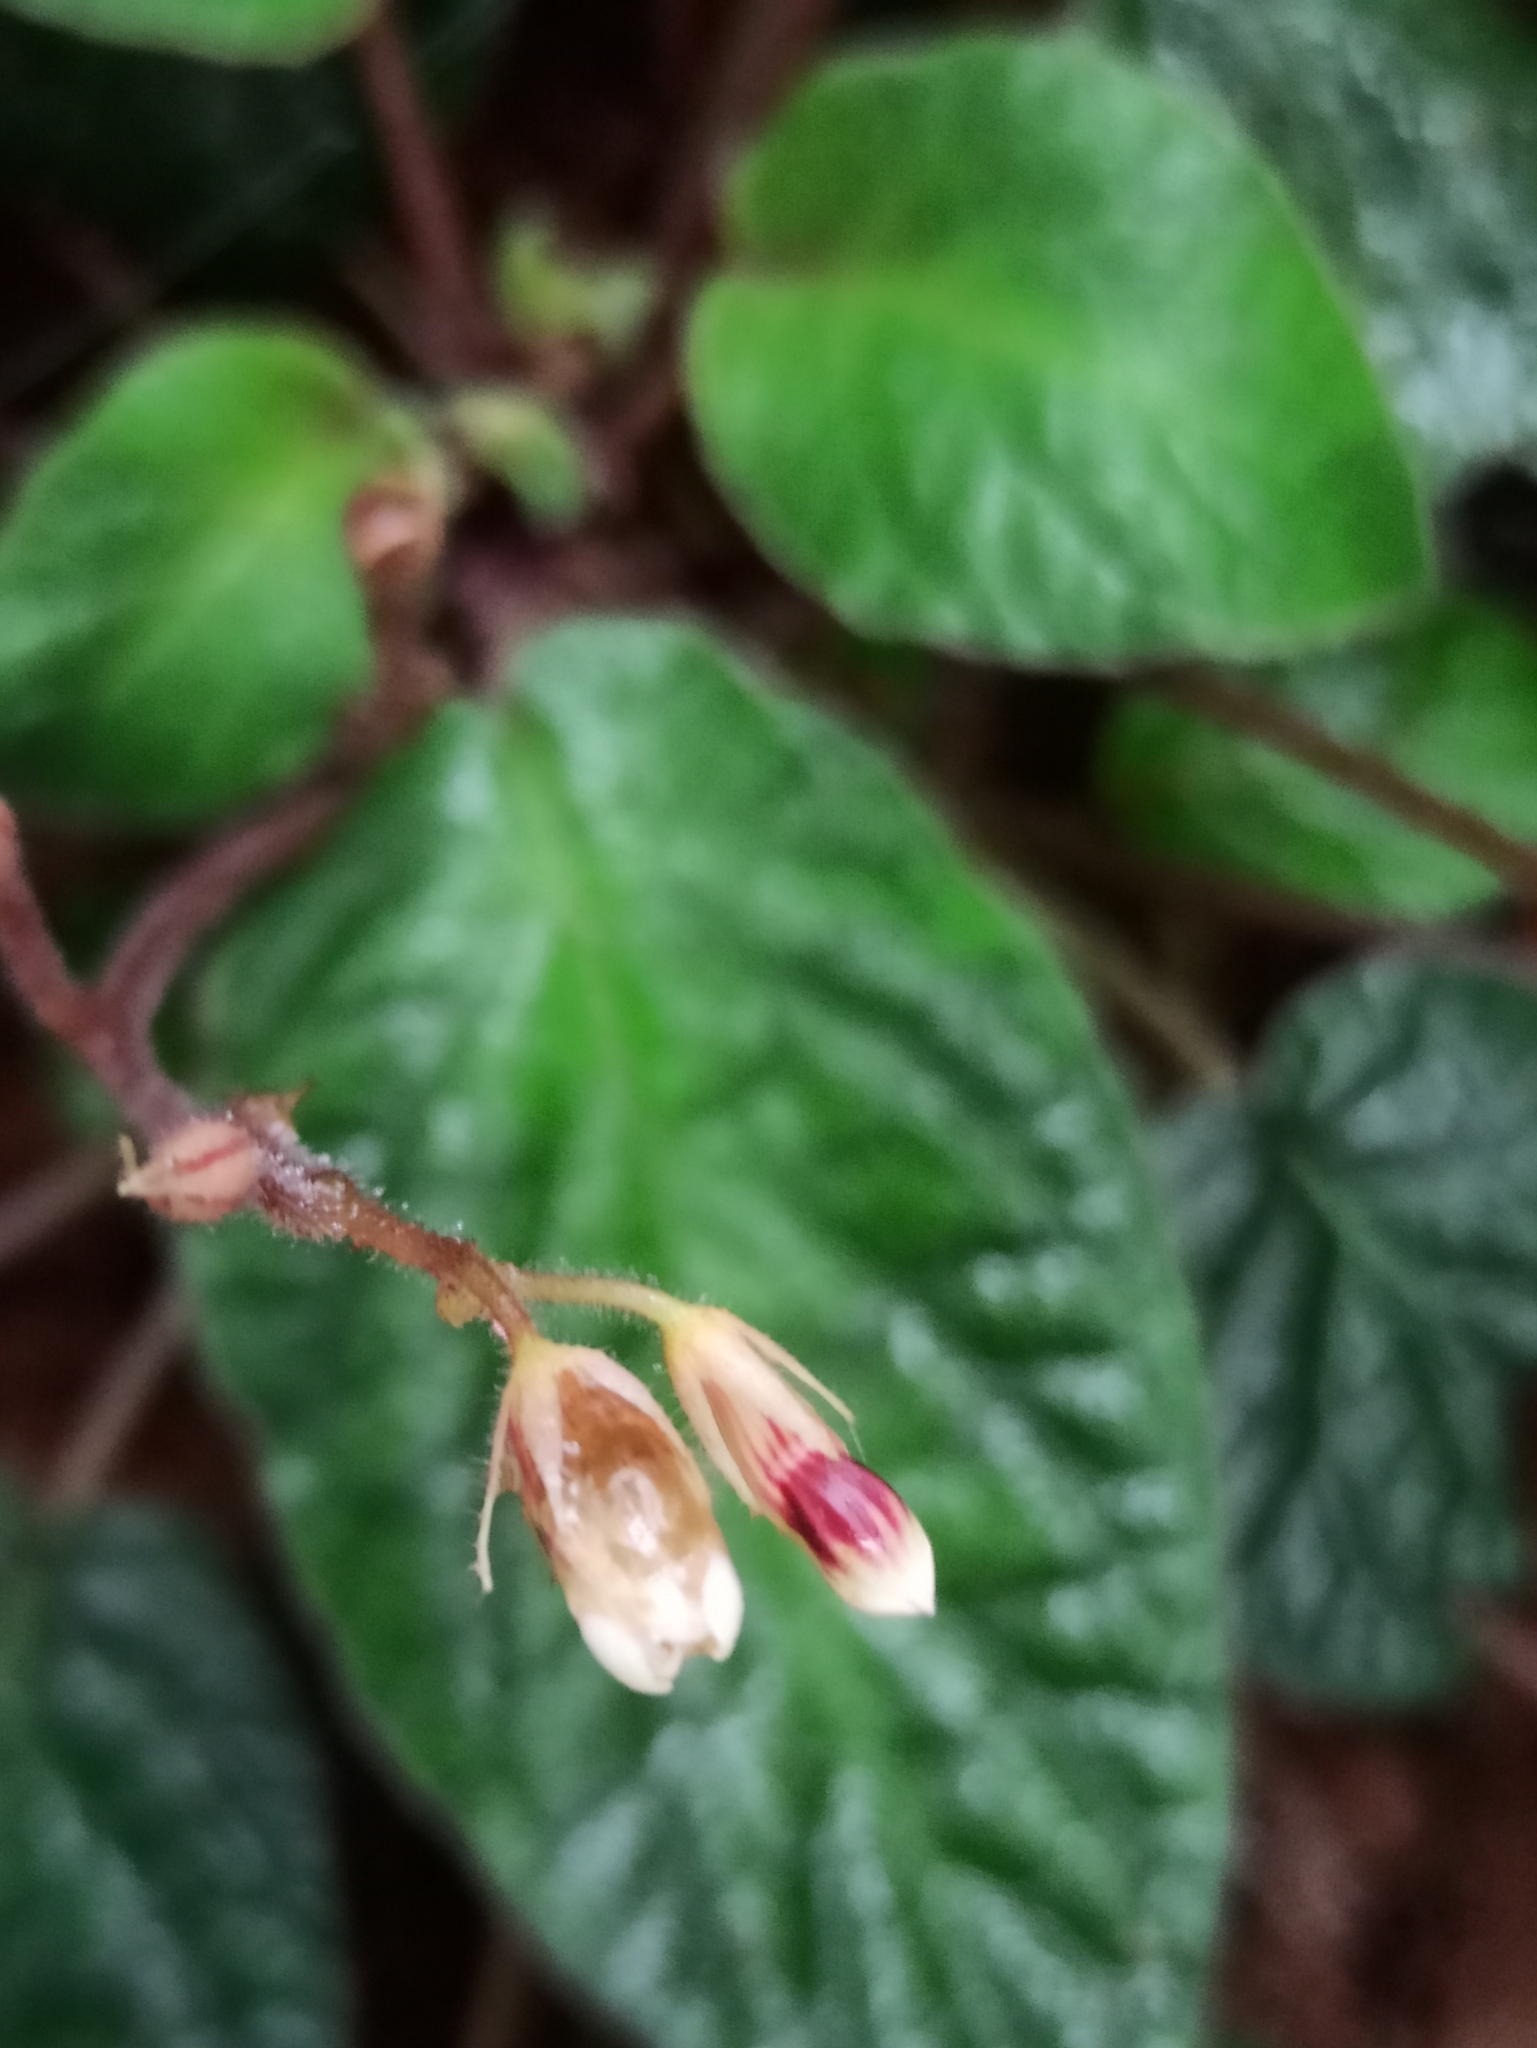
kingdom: Plantae
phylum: Tracheophyta
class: Magnoliopsida
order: Lamiales
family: Gesneriaceae
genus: Jerdonia
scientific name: Jerdonia indica
